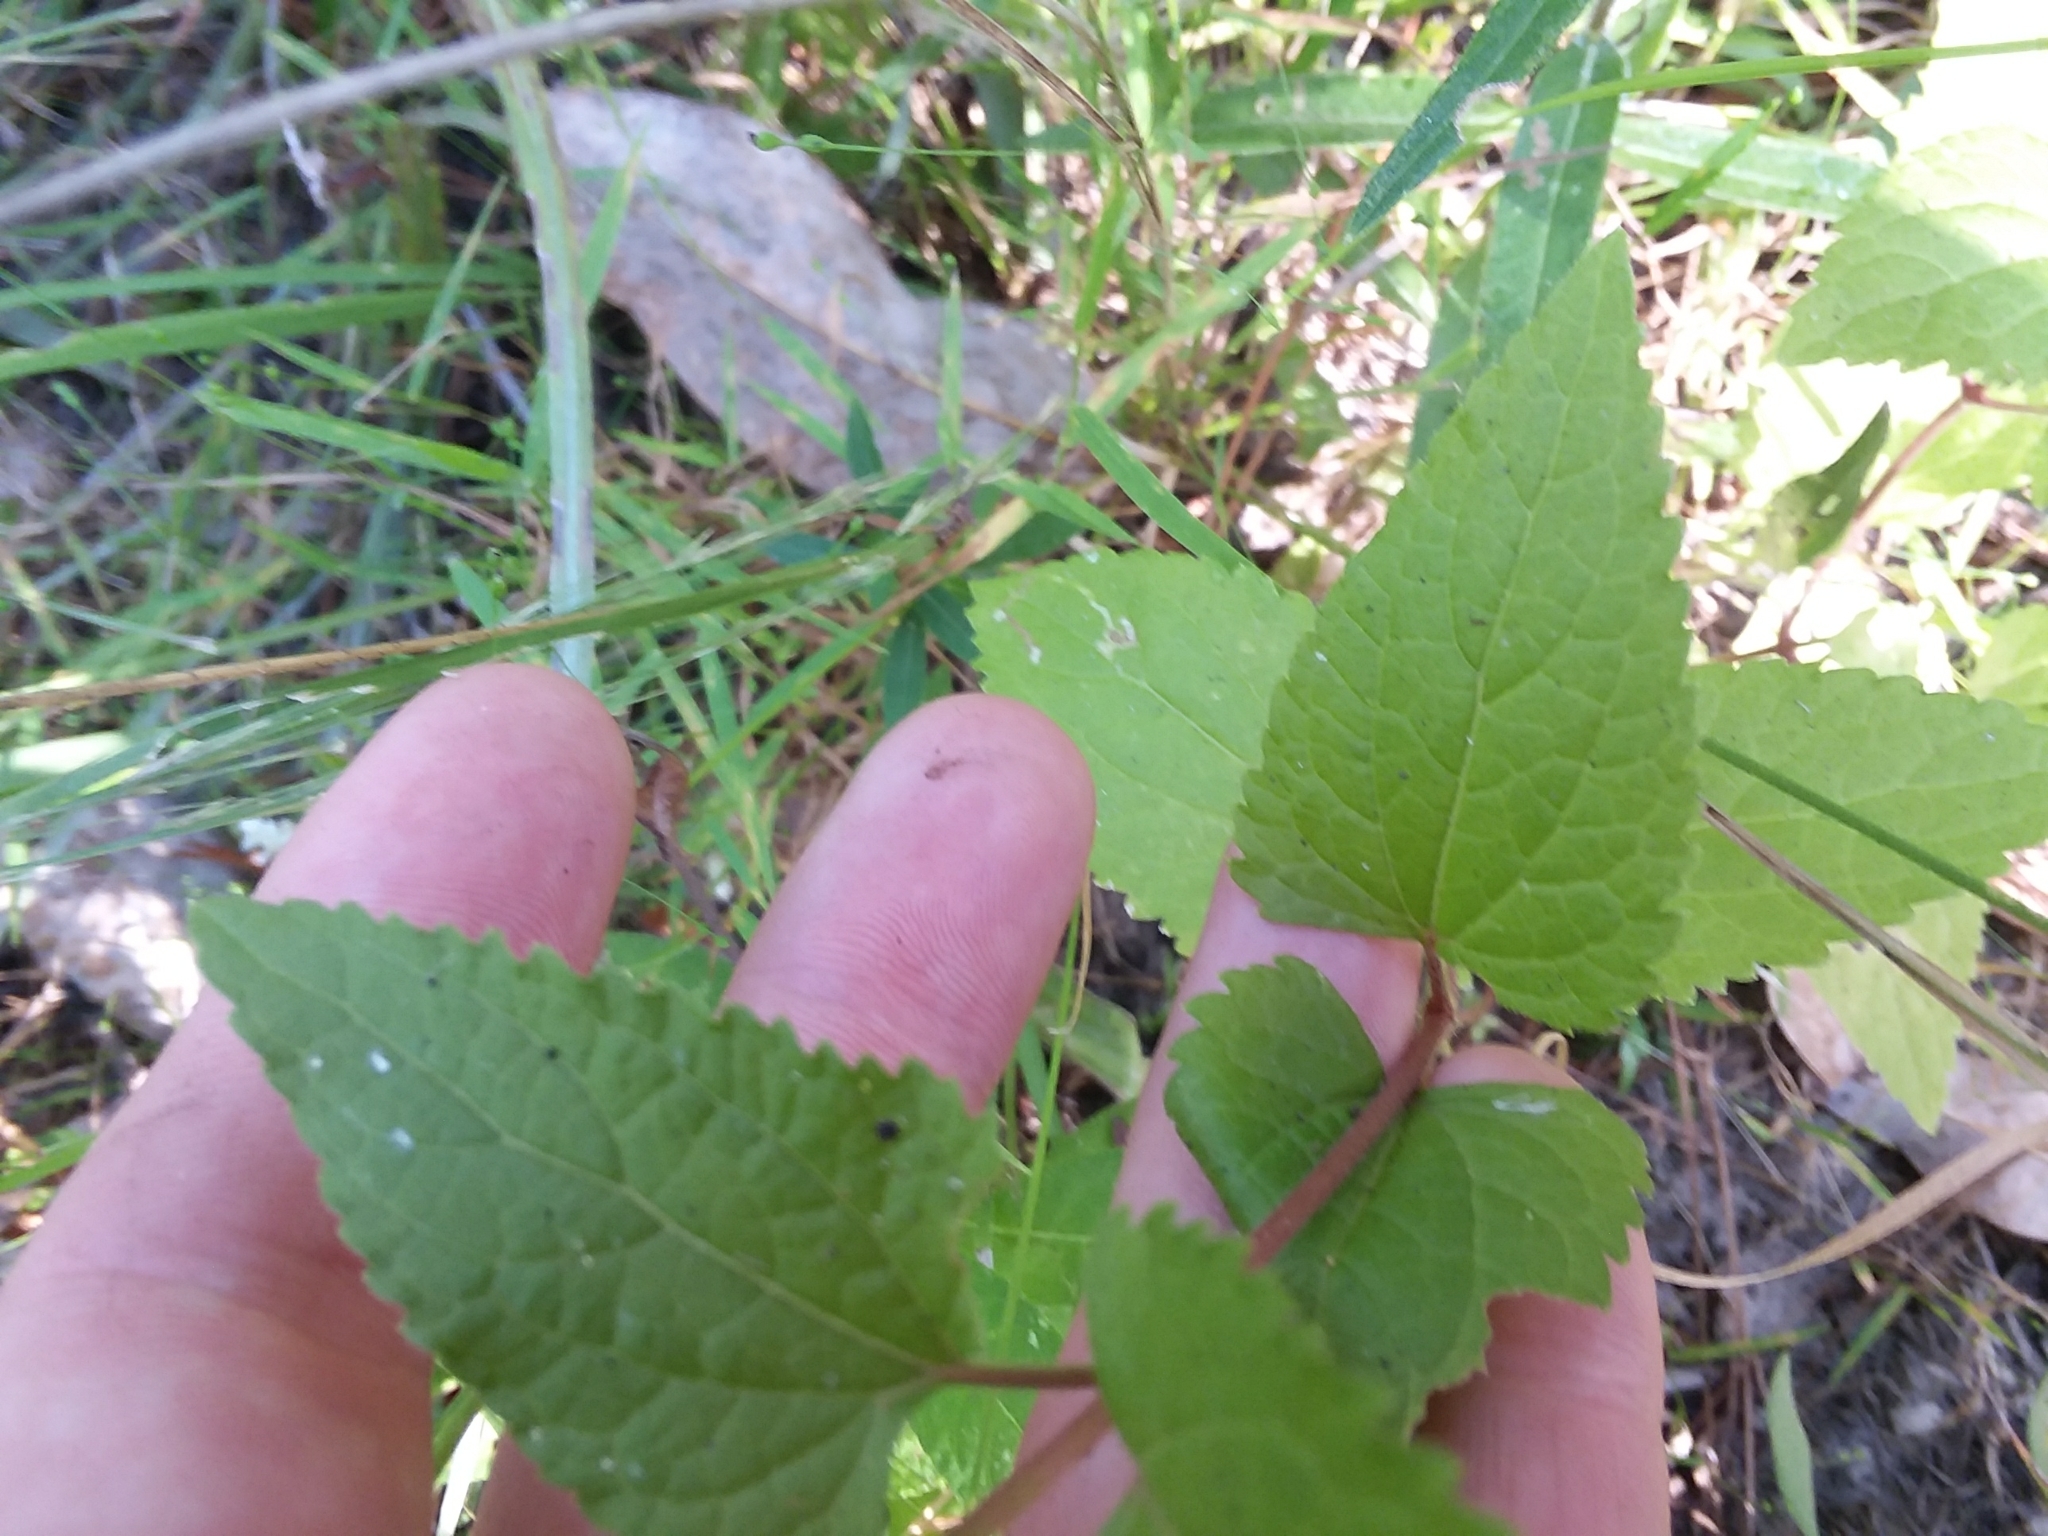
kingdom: Plantae
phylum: Tracheophyta
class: Magnoliopsida
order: Asterales
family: Asteraceae
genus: Conoclinium
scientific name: Conoclinium coelestinum
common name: Blue mistflower
